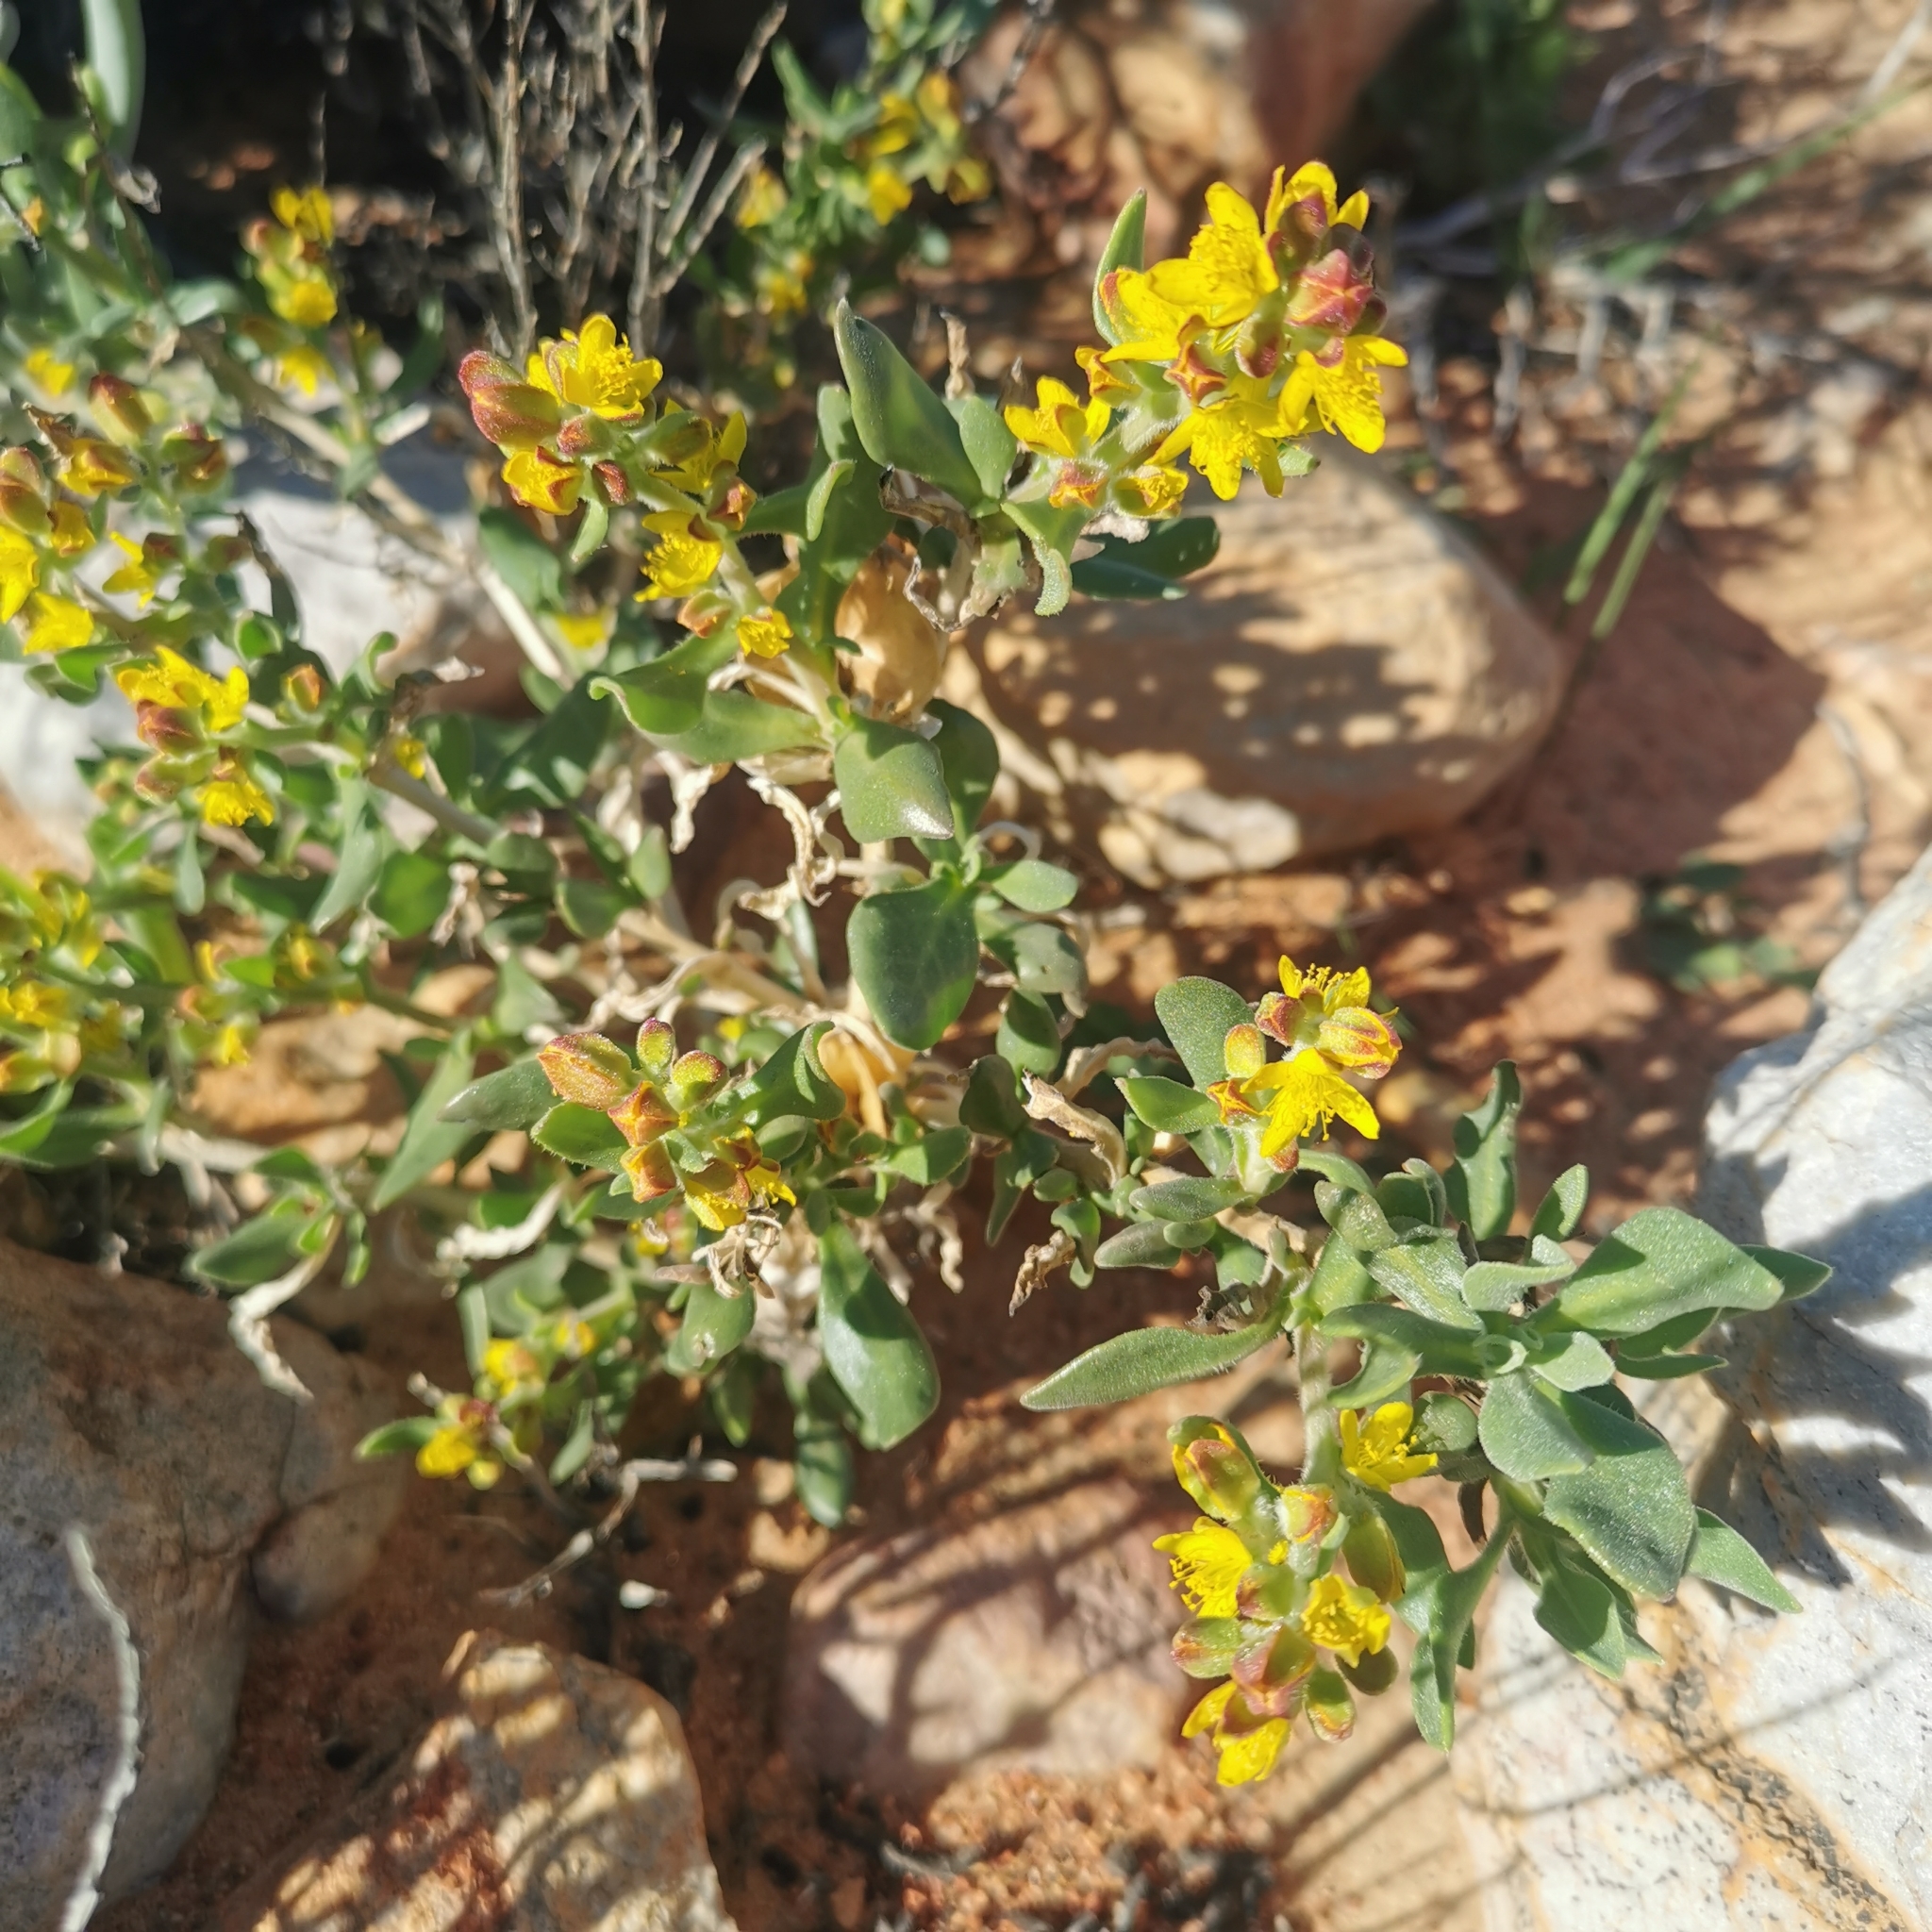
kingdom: Plantae
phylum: Tracheophyta
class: Magnoliopsida
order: Caryophyllales
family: Aizoaceae
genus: Tetragonia
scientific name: Tetragonia reduplicata
